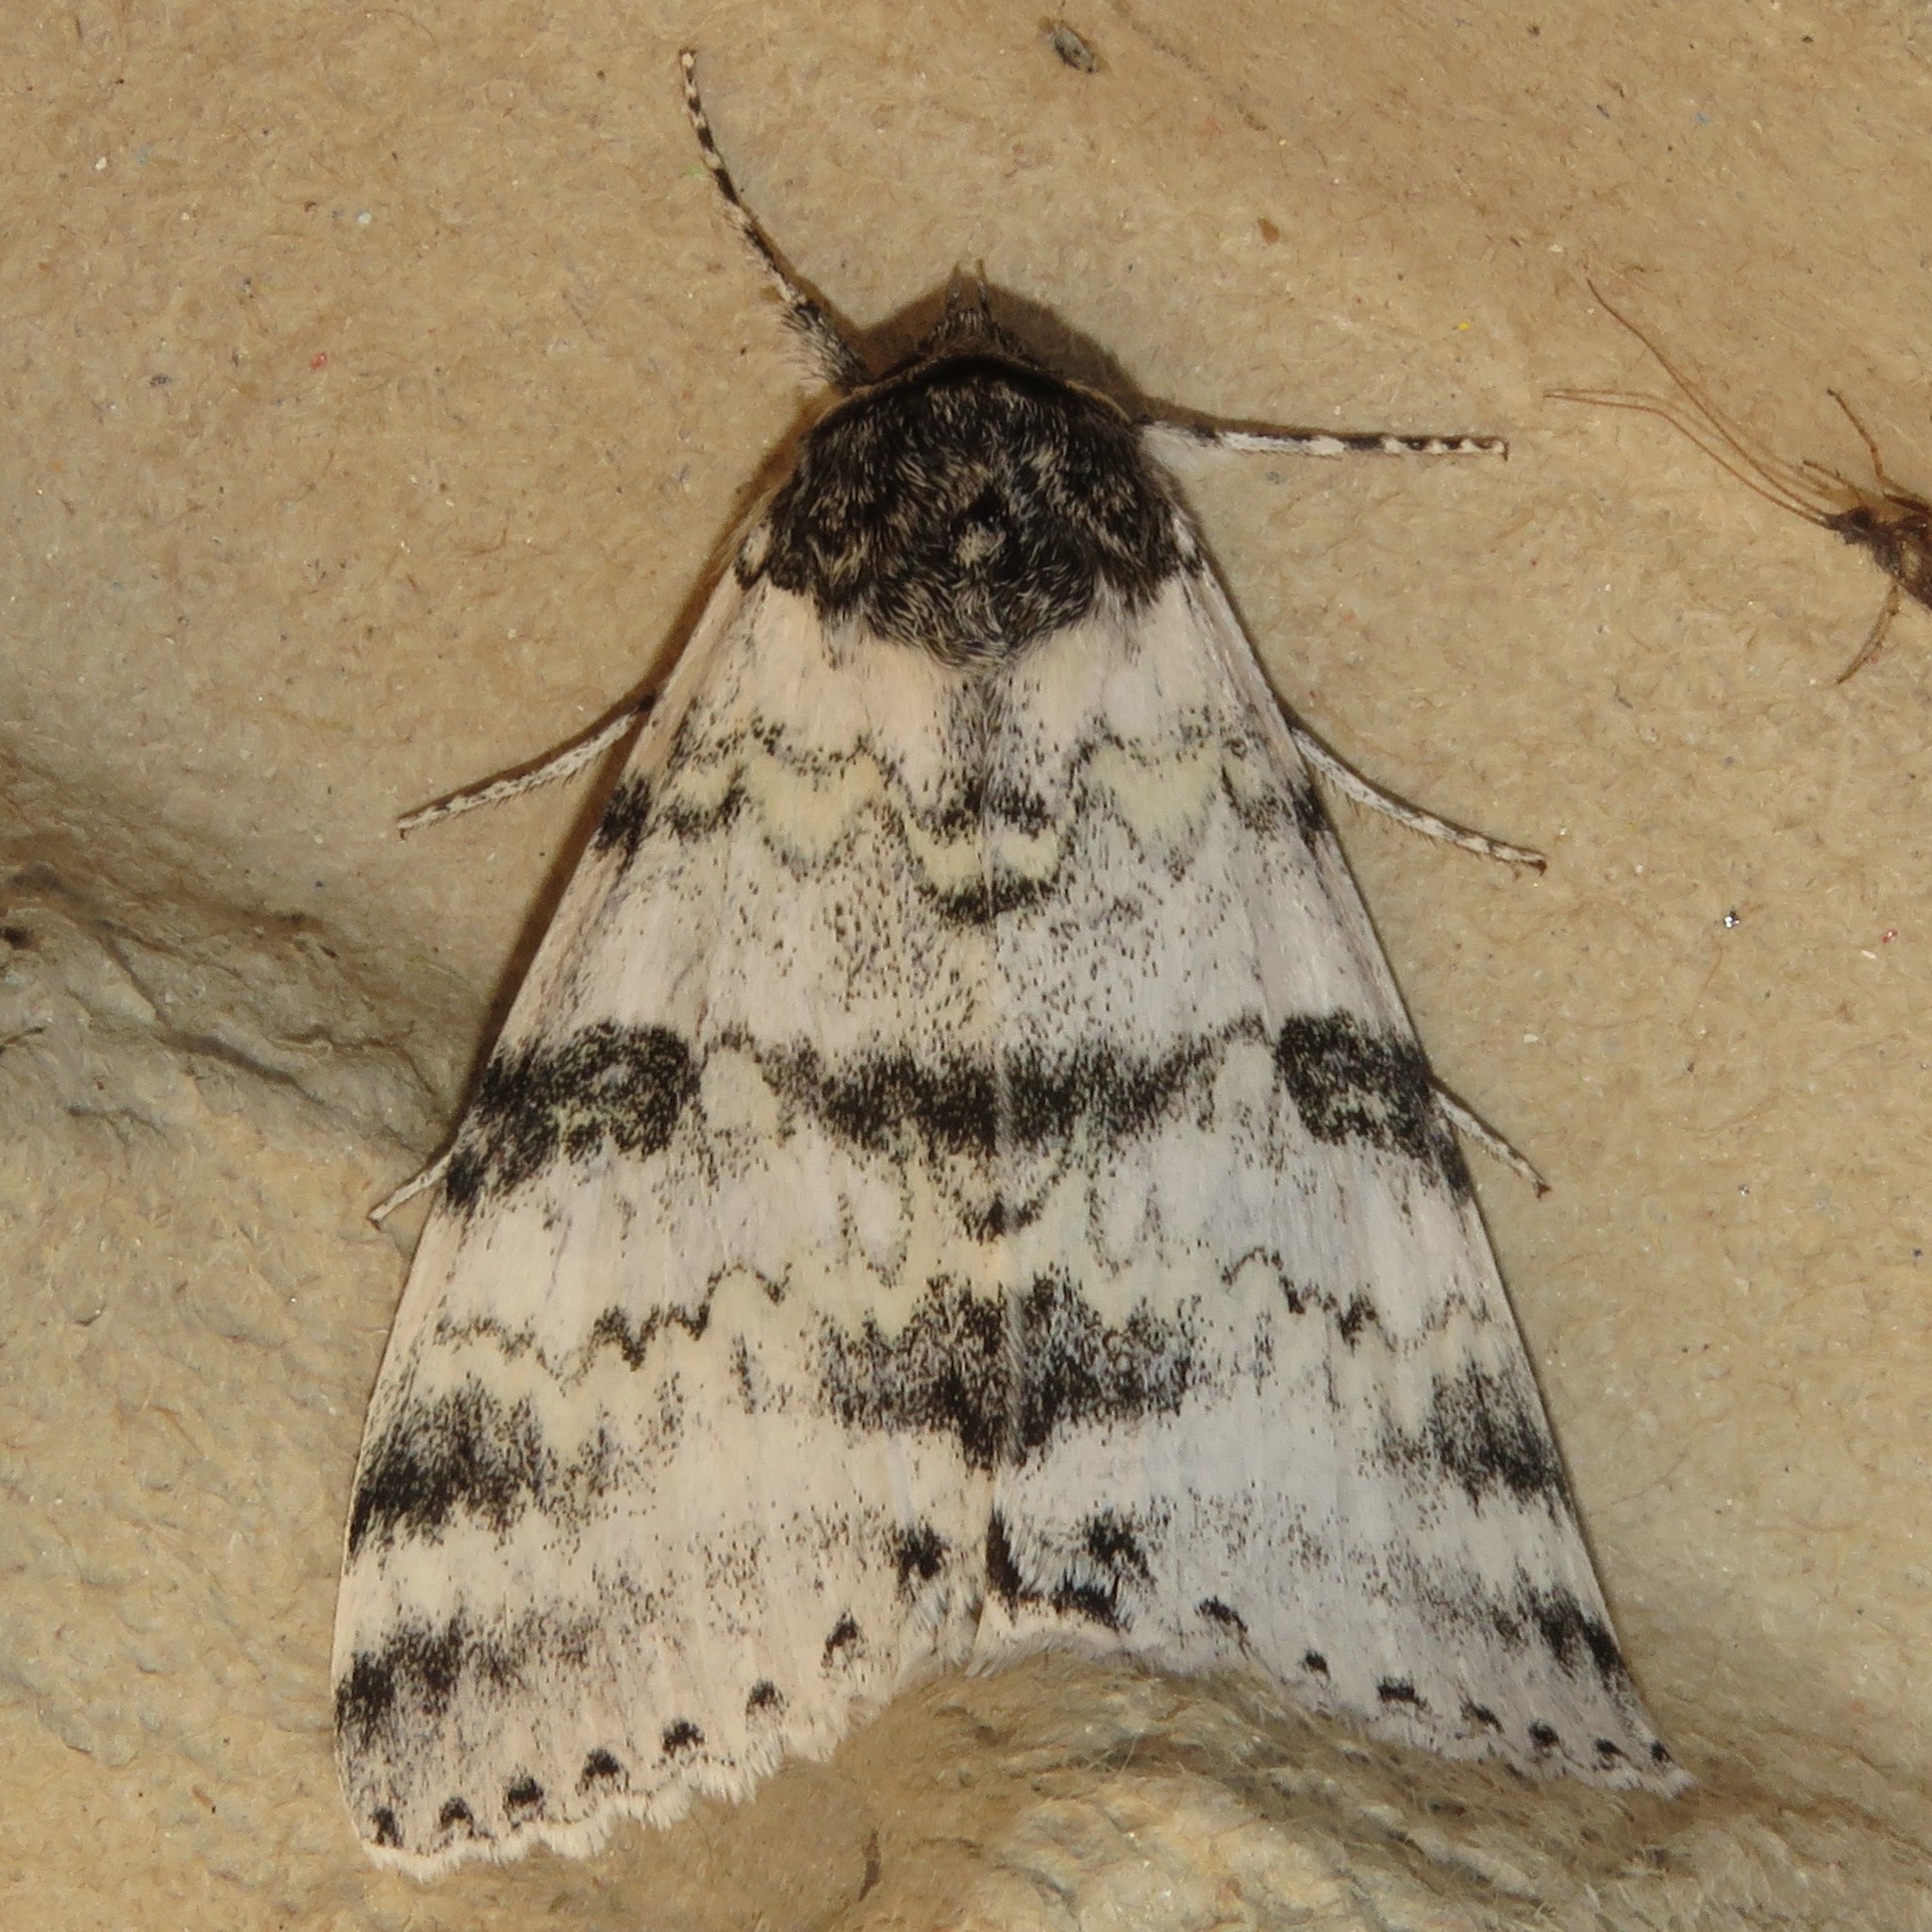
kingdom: Animalia
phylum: Arthropoda
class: Insecta
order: Lepidoptera
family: Erebidae
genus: Catocala
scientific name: Catocala relicta
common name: White underwing
